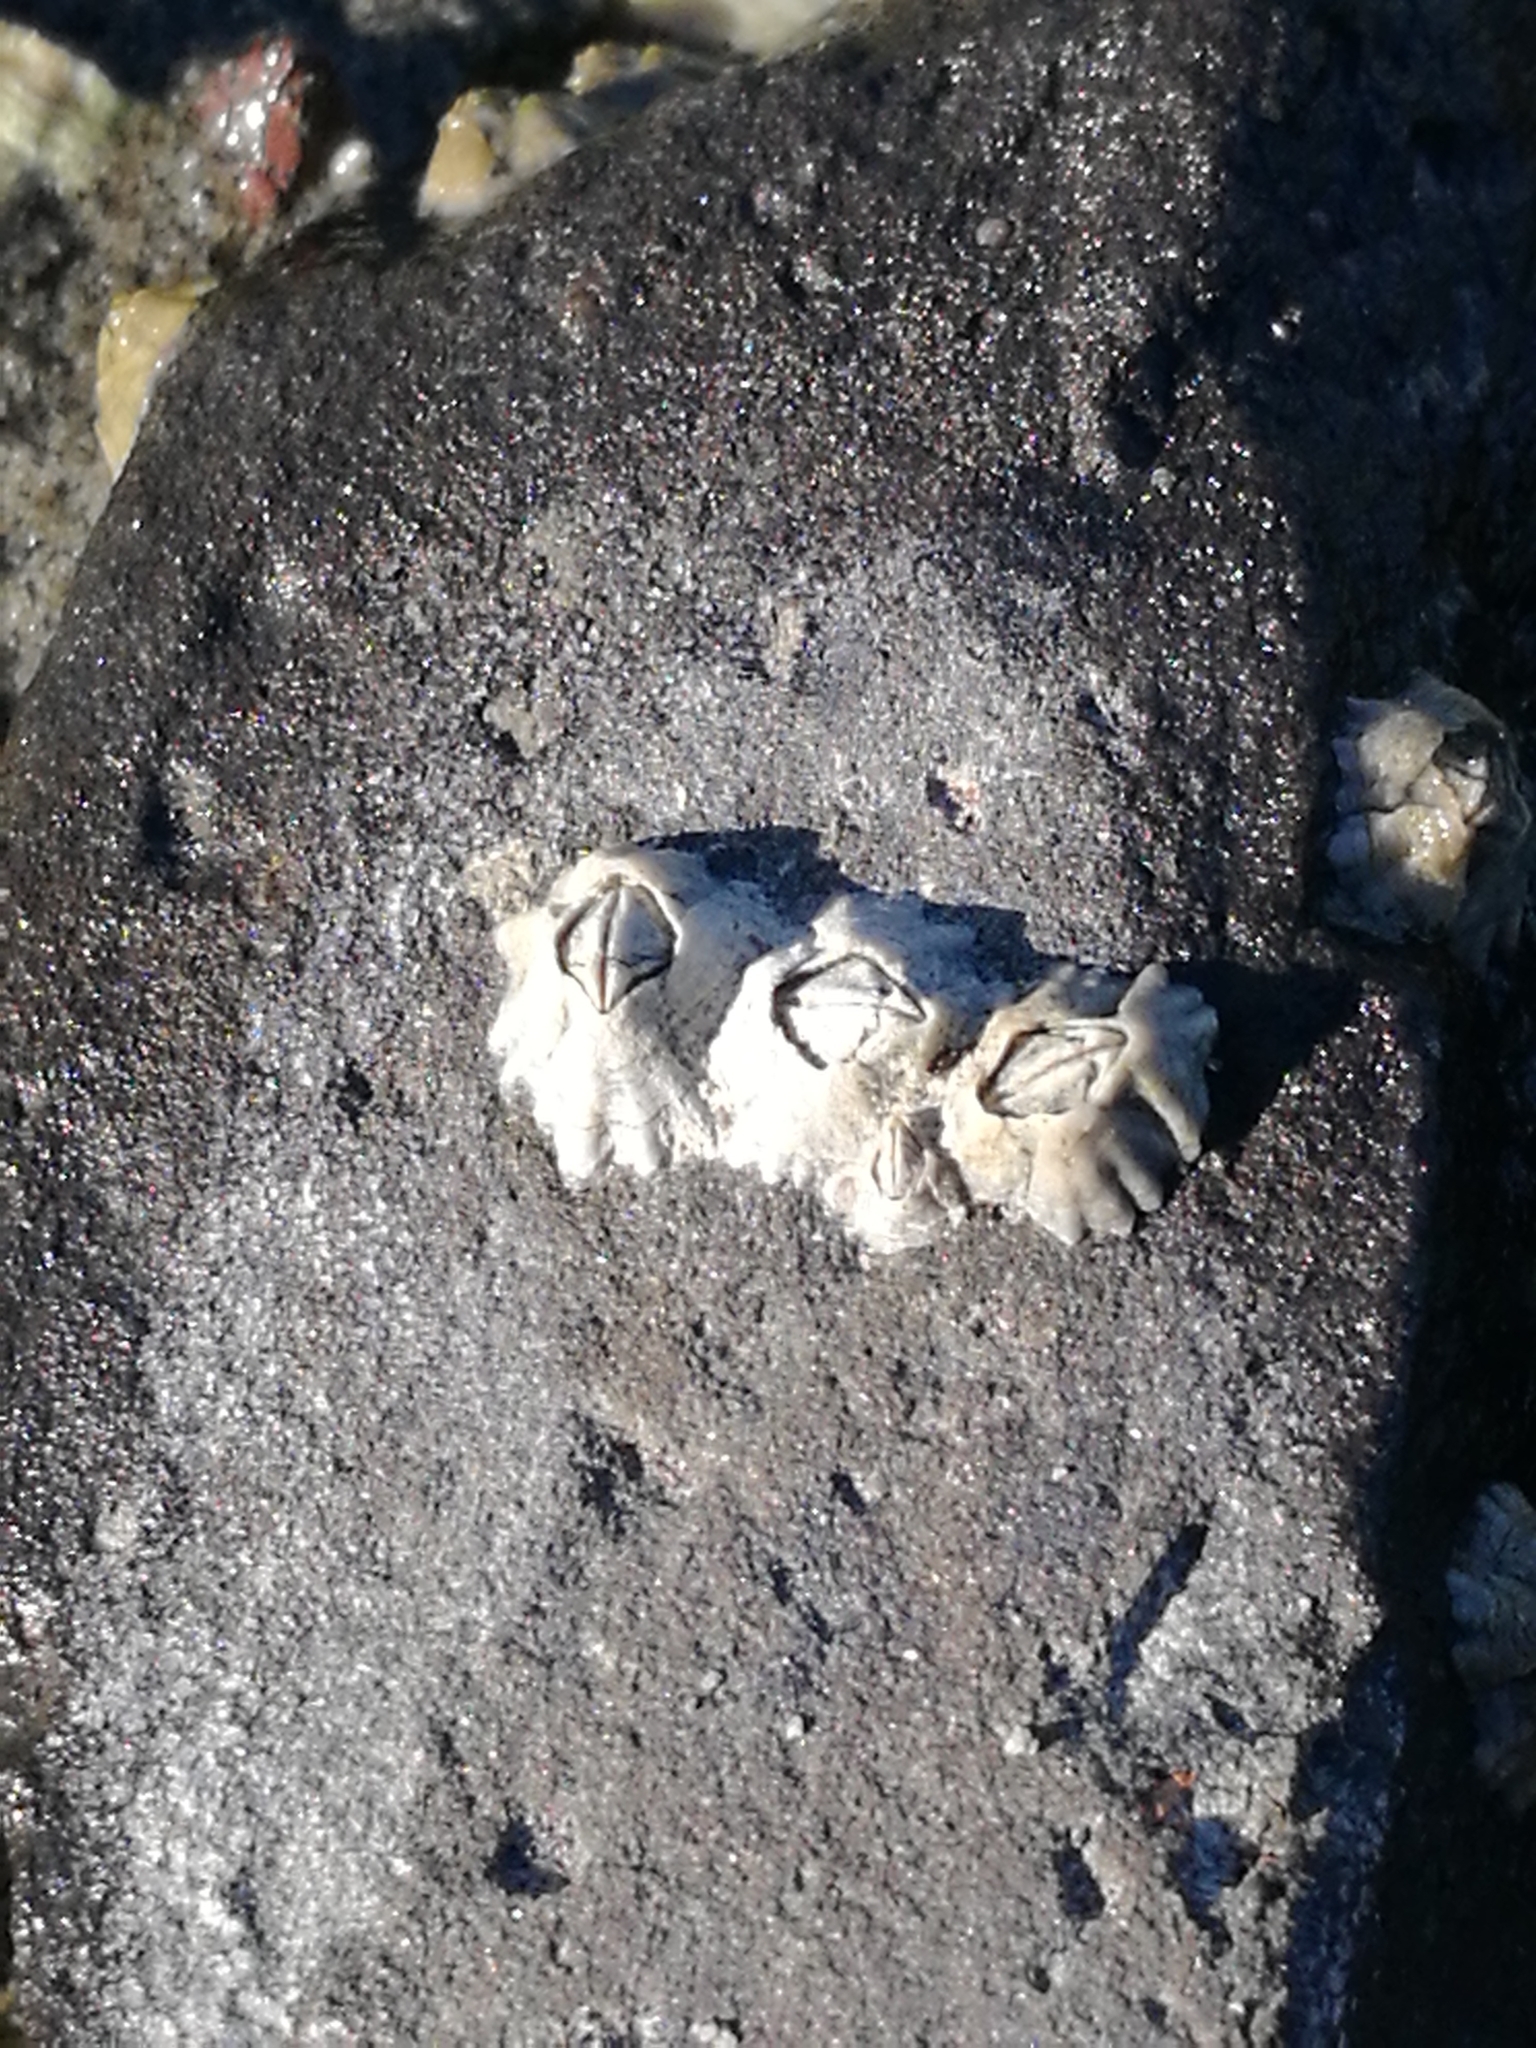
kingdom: Animalia
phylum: Arthropoda
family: Elminiidae
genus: Austrominius
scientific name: Austrominius modestus
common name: Australasian barnacle
